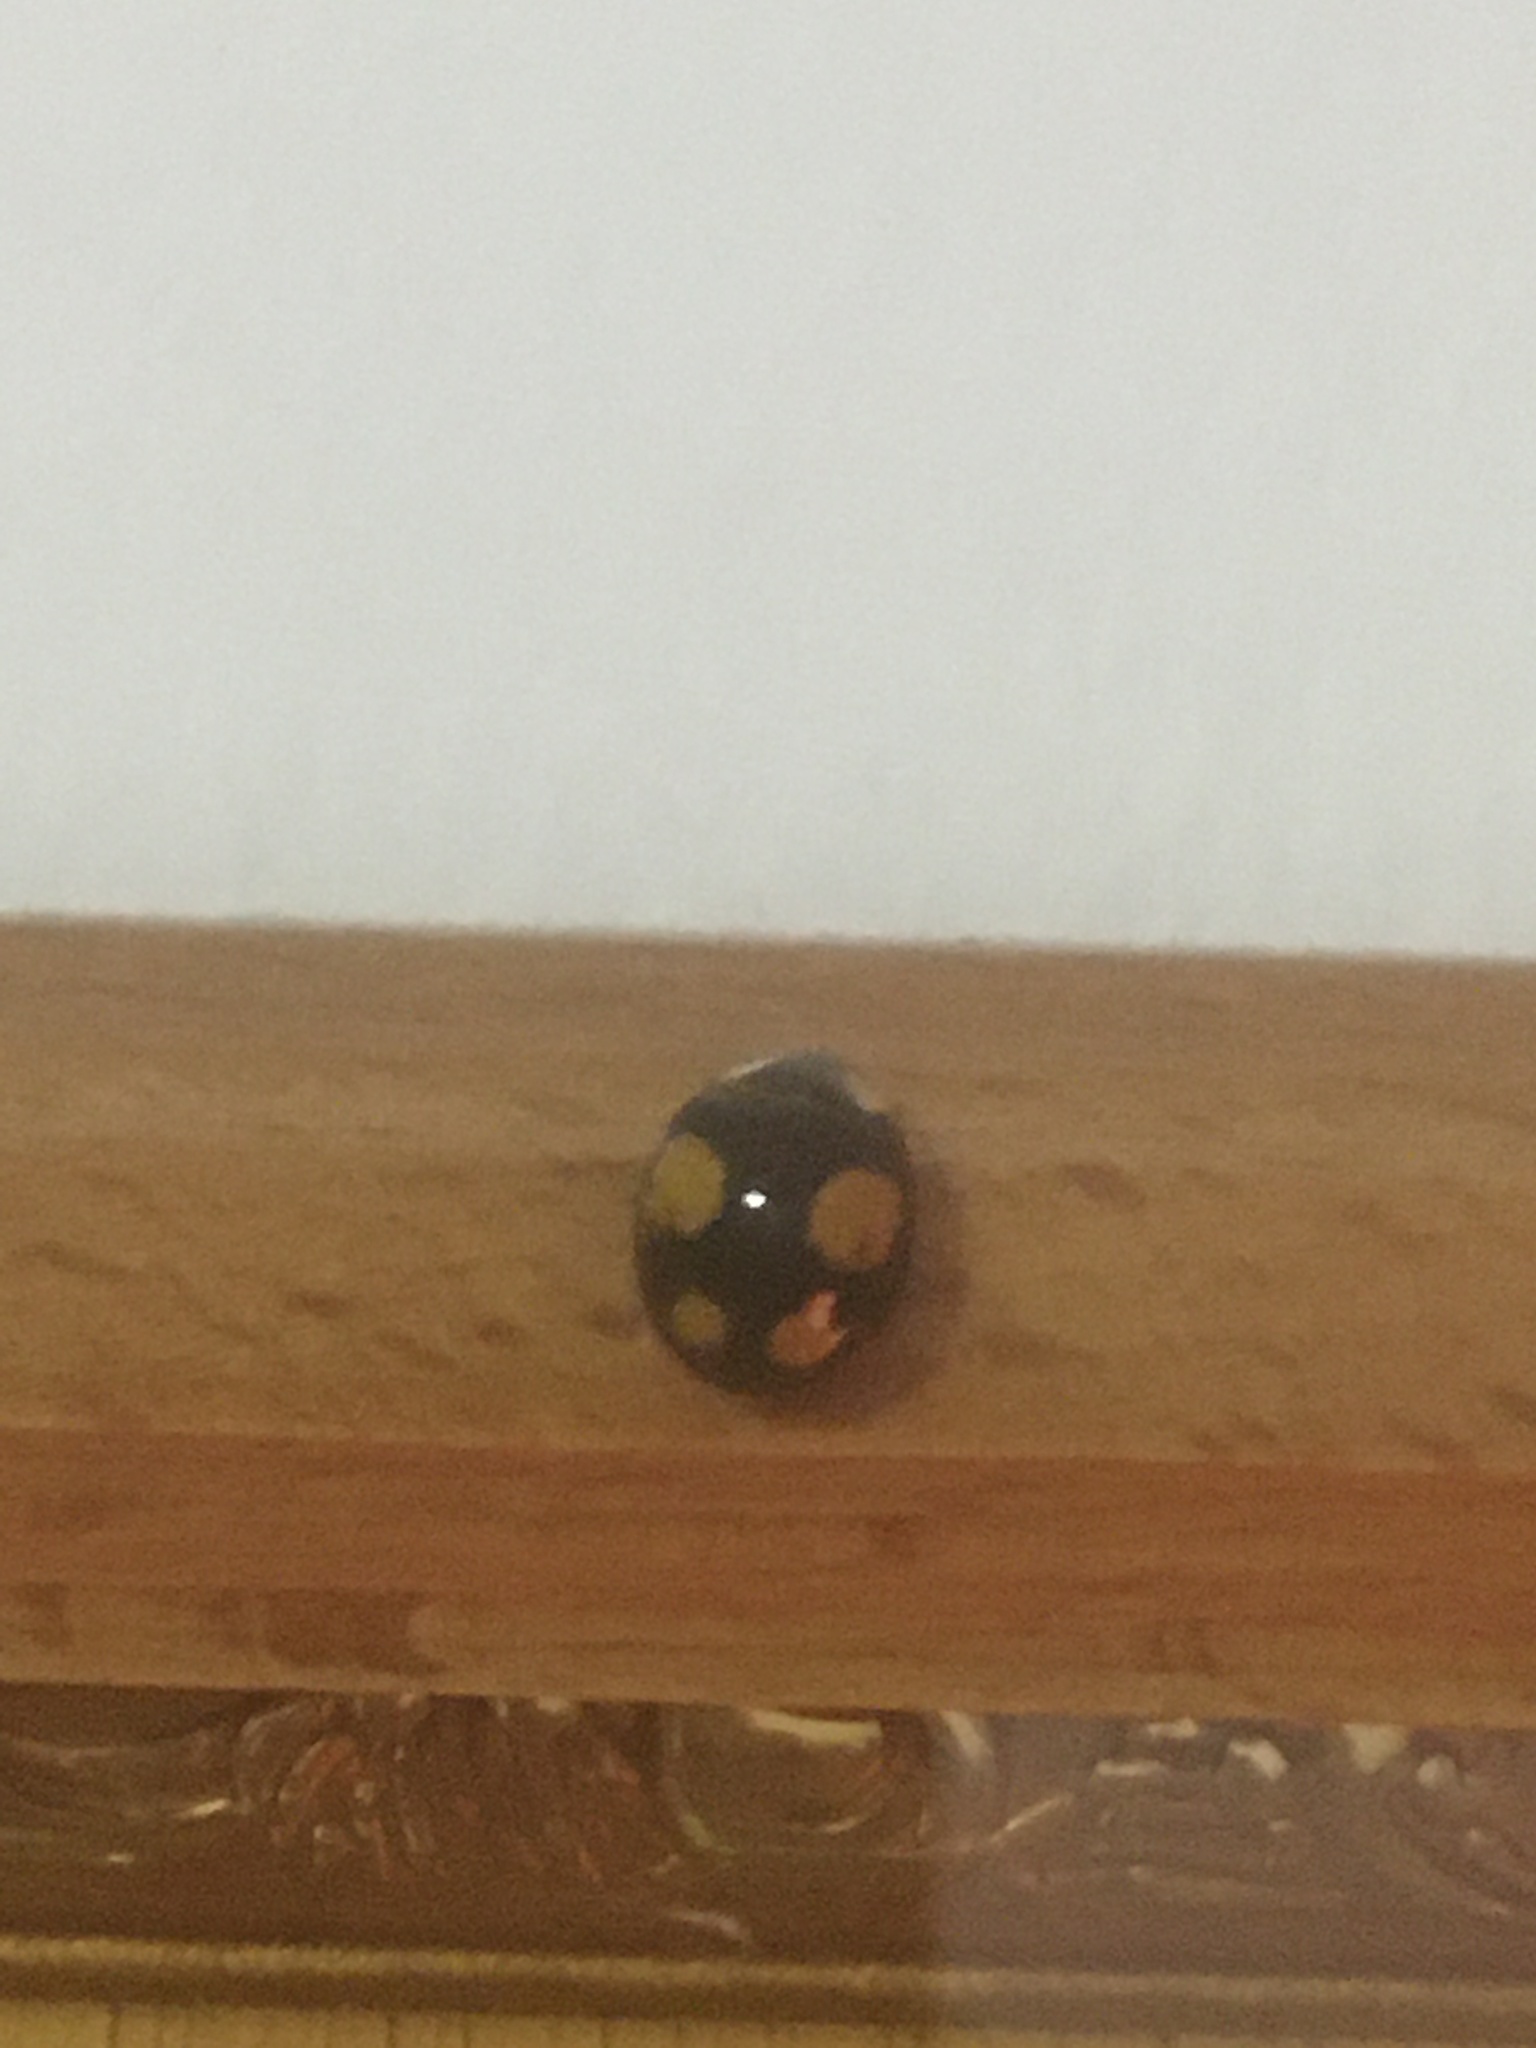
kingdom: Animalia
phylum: Arthropoda
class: Insecta
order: Coleoptera
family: Coccinellidae
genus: Harmonia
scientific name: Harmonia axyridis
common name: Harlequin ladybird
